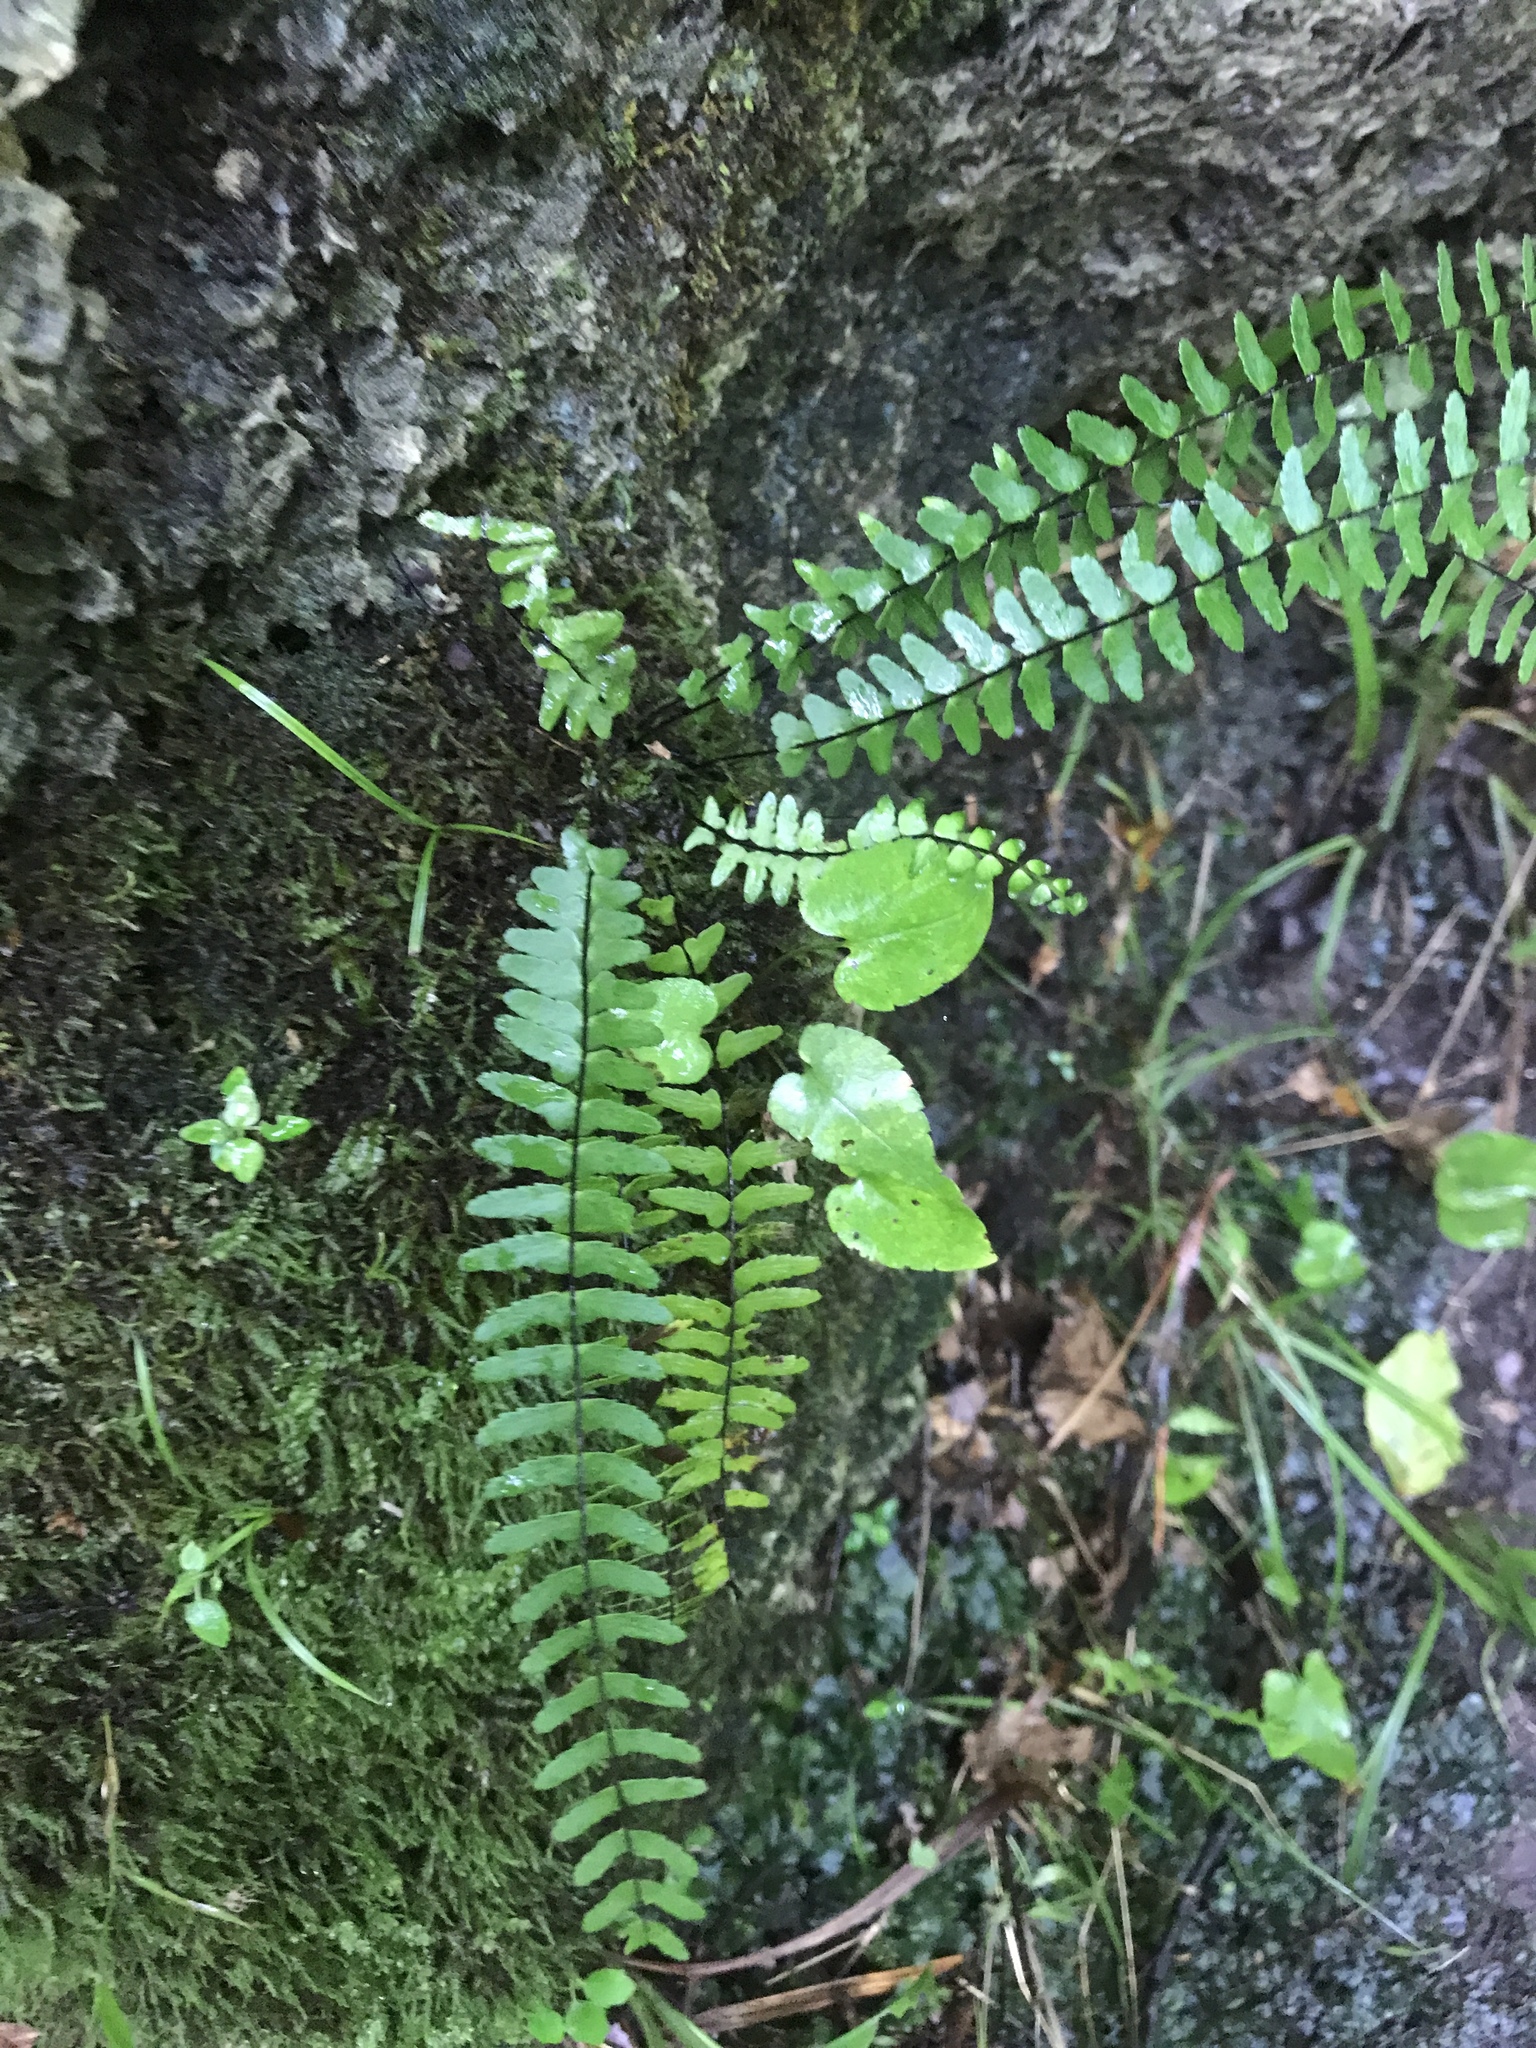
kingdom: Plantae
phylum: Tracheophyta
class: Polypodiopsida
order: Polypodiales
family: Aspleniaceae
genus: Asplenium
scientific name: Asplenium heteroresiliens
